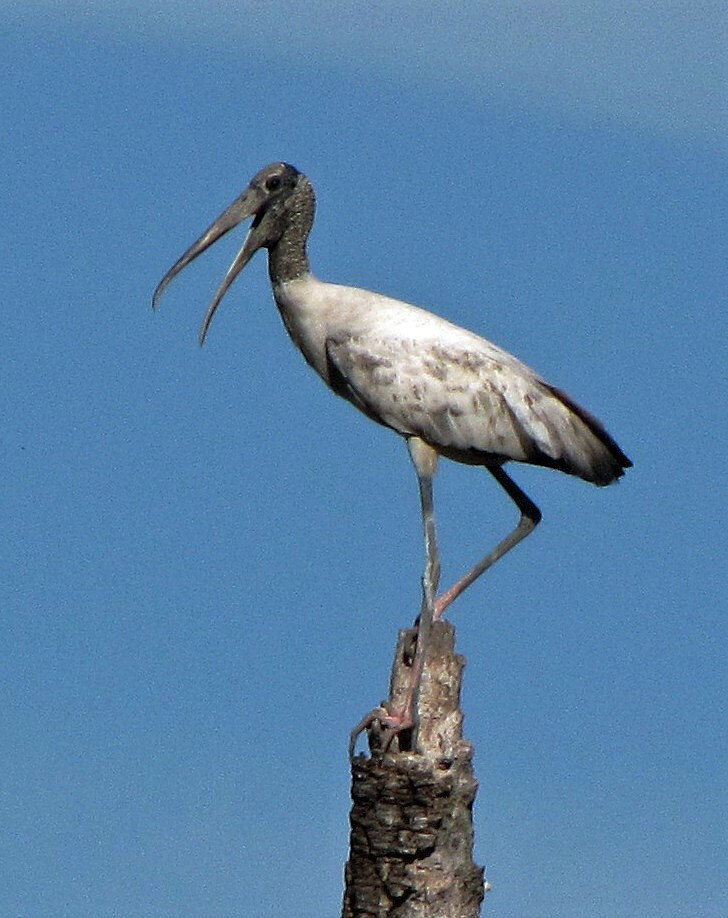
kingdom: Animalia
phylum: Chordata
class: Aves
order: Ciconiiformes
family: Ciconiidae
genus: Mycteria
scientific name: Mycteria americana
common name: Wood stork
